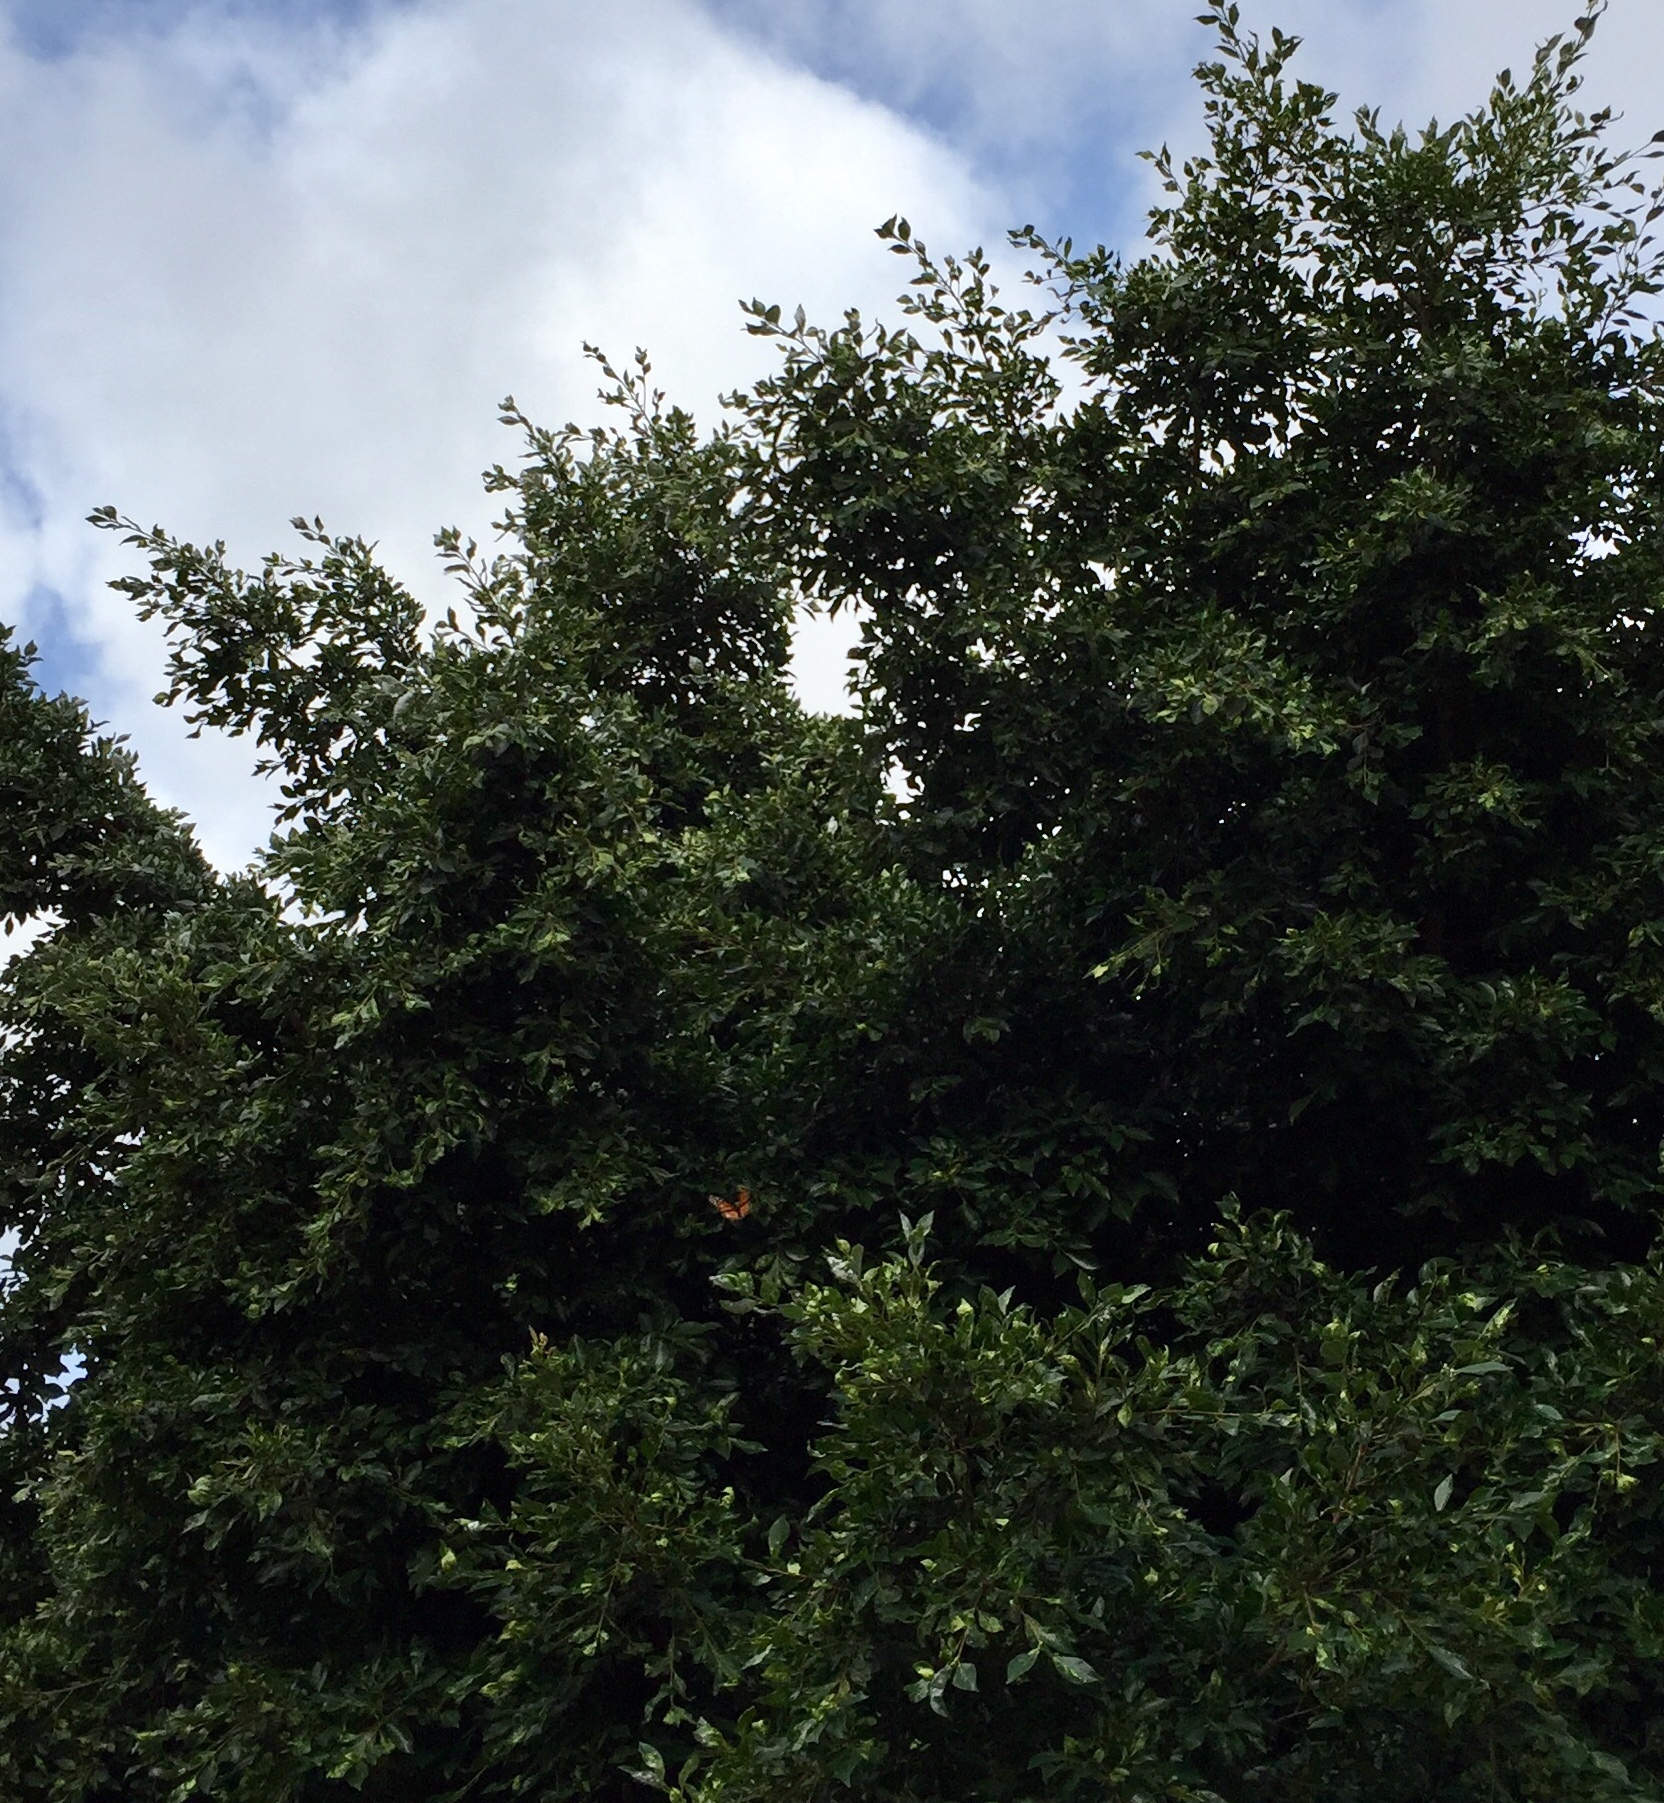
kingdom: Animalia
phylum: Arthropoda
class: Insecta
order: Lepidoptera
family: Nymphalidae
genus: Danaus
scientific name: Danaus plexippus
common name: Monarch
